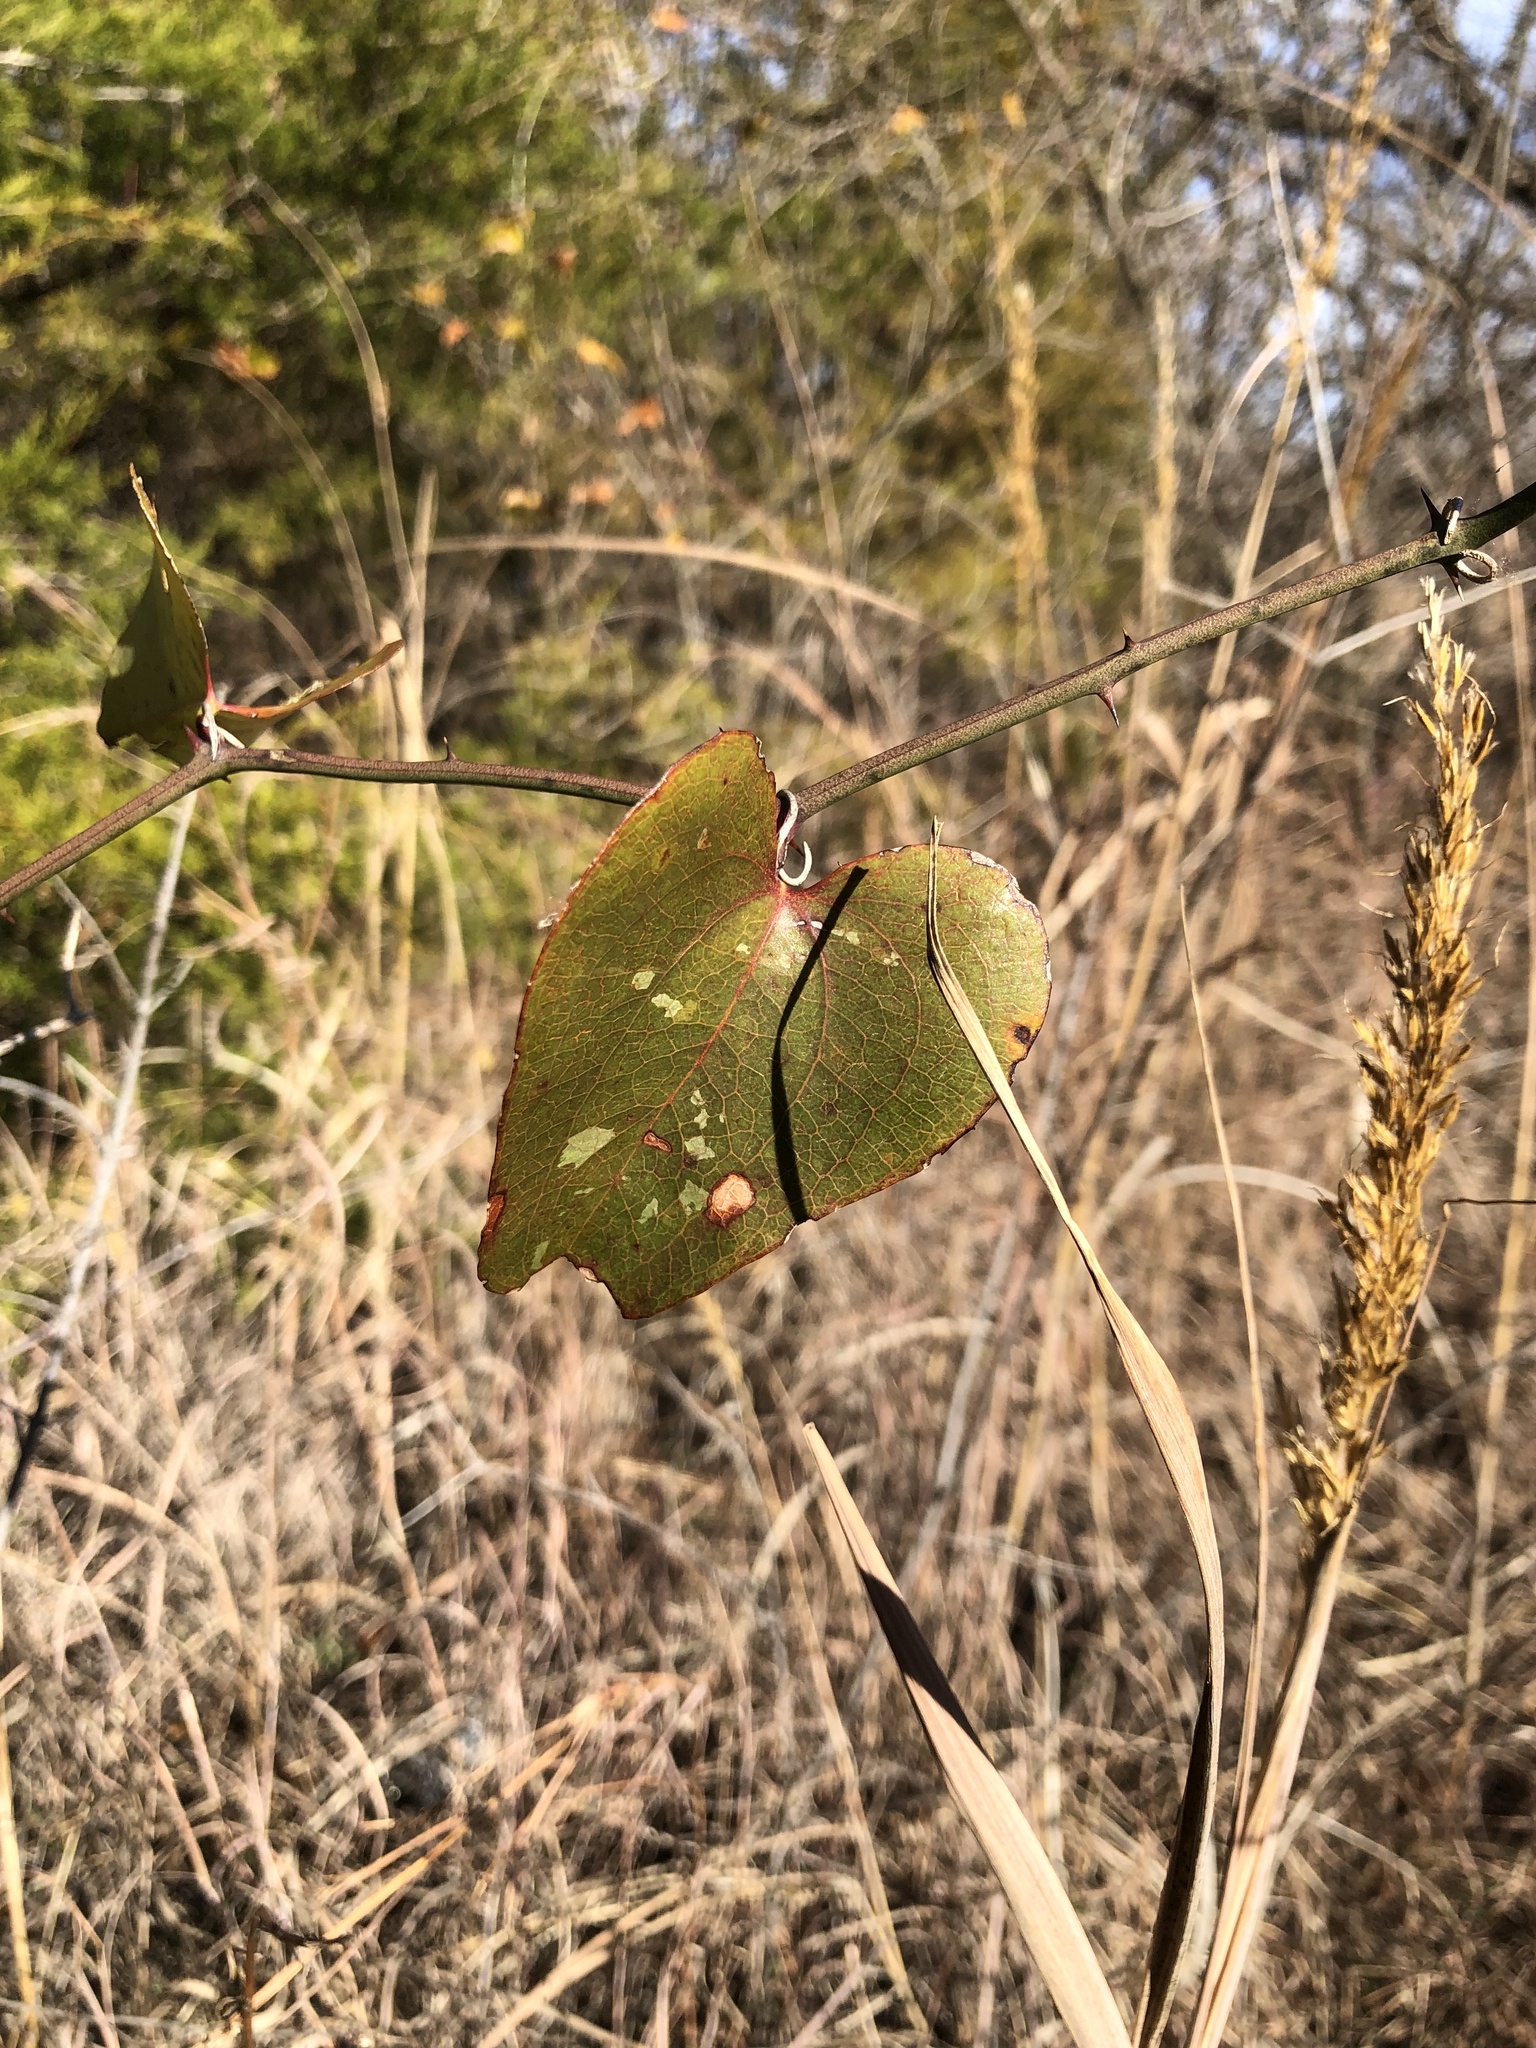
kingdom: Plantae
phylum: Tracheophyta
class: Liliopsida
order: Liliales
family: Smilacaceae
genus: Smilax
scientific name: Smilax bona-nox
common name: Catbrier
